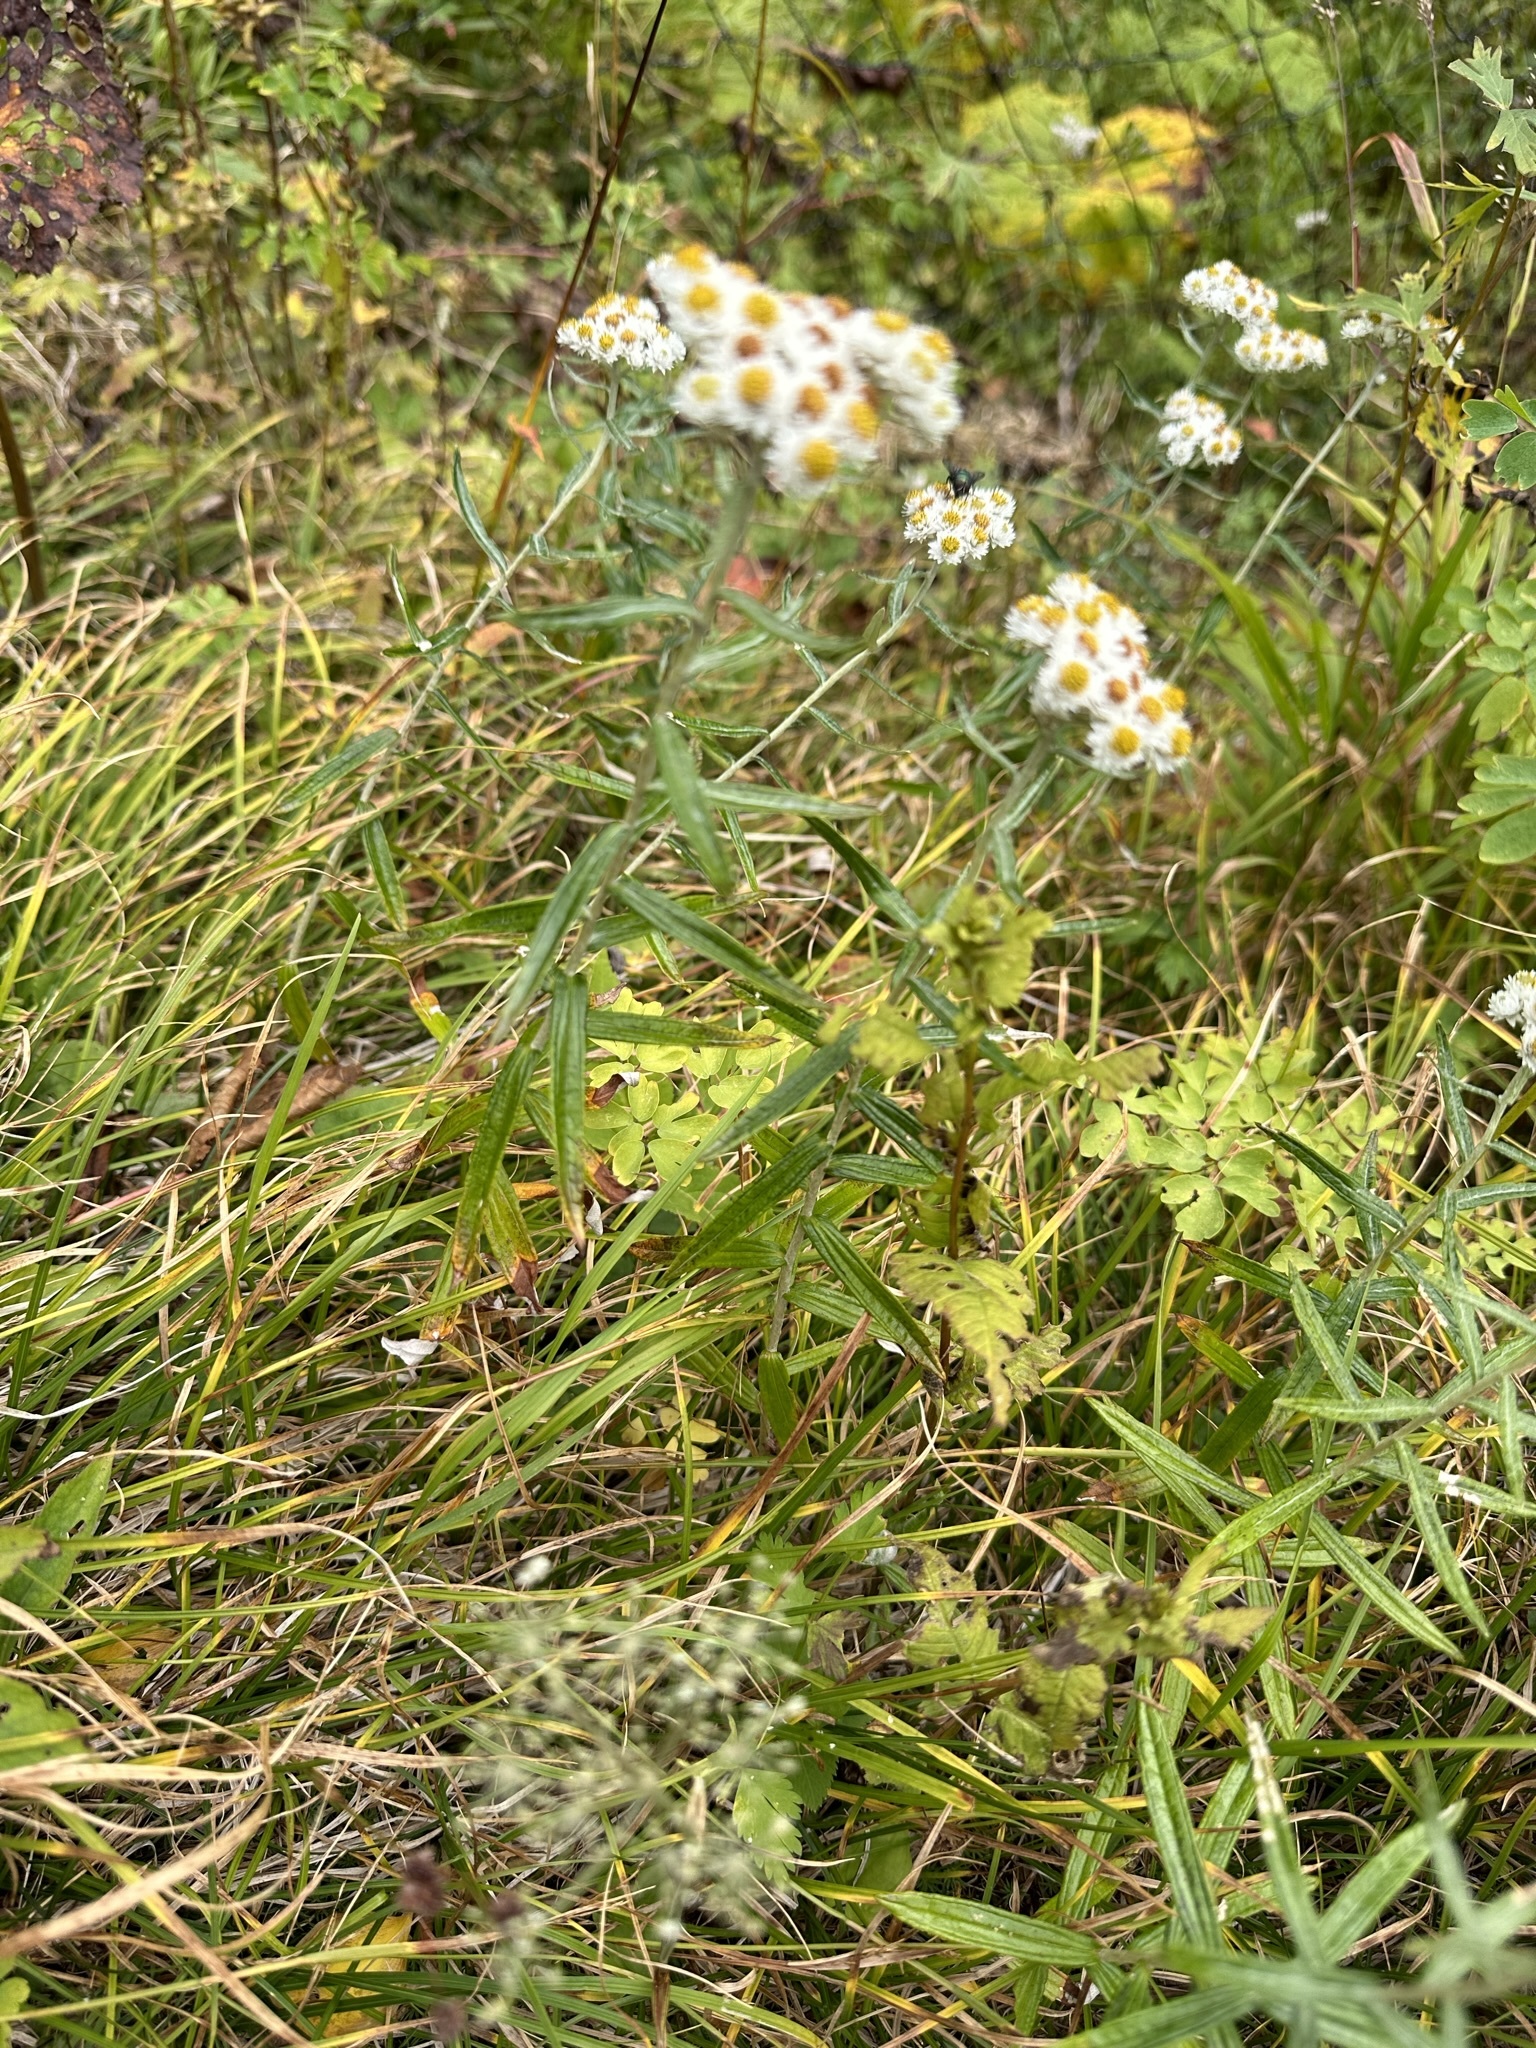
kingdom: Plantae
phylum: Tracheophyta
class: Magnoliopsida
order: Asterales
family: Asteraceae
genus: Anaphalis
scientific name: Anaphalis margaritacea
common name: Pearly everlasting
